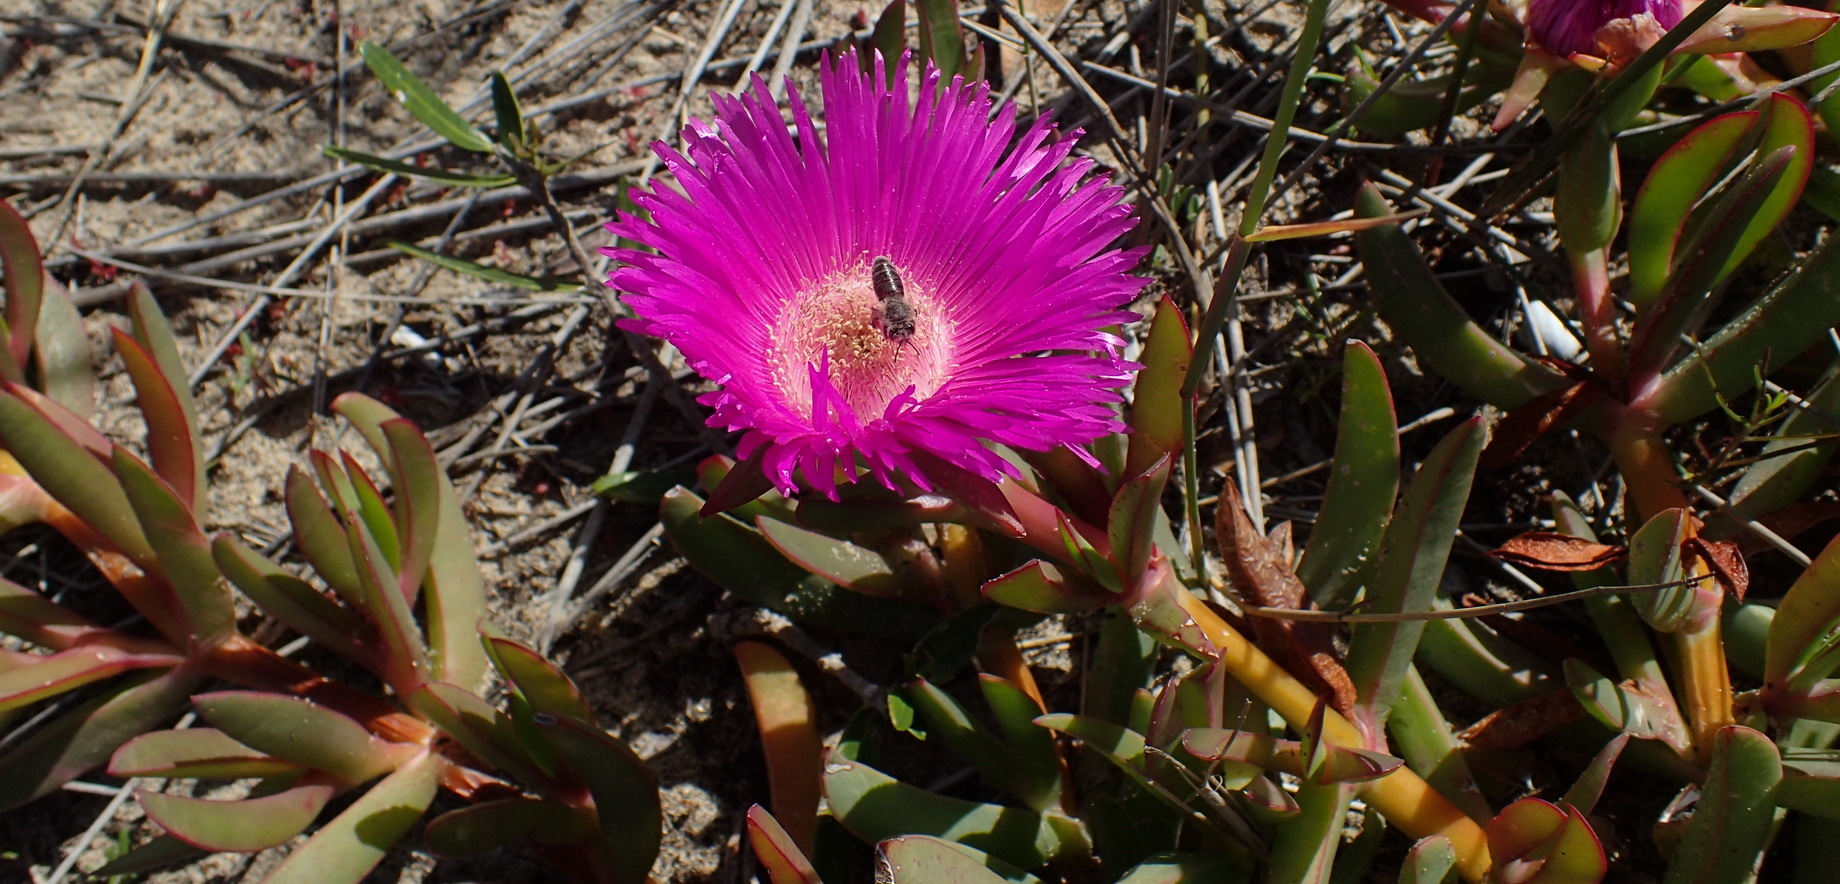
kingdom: Plantae
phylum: Tracheophyta
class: Magnoliopsida
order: Caryophyllales
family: Aizoaceae
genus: Carpobrotus
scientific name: Carpobrotus deliciosus
